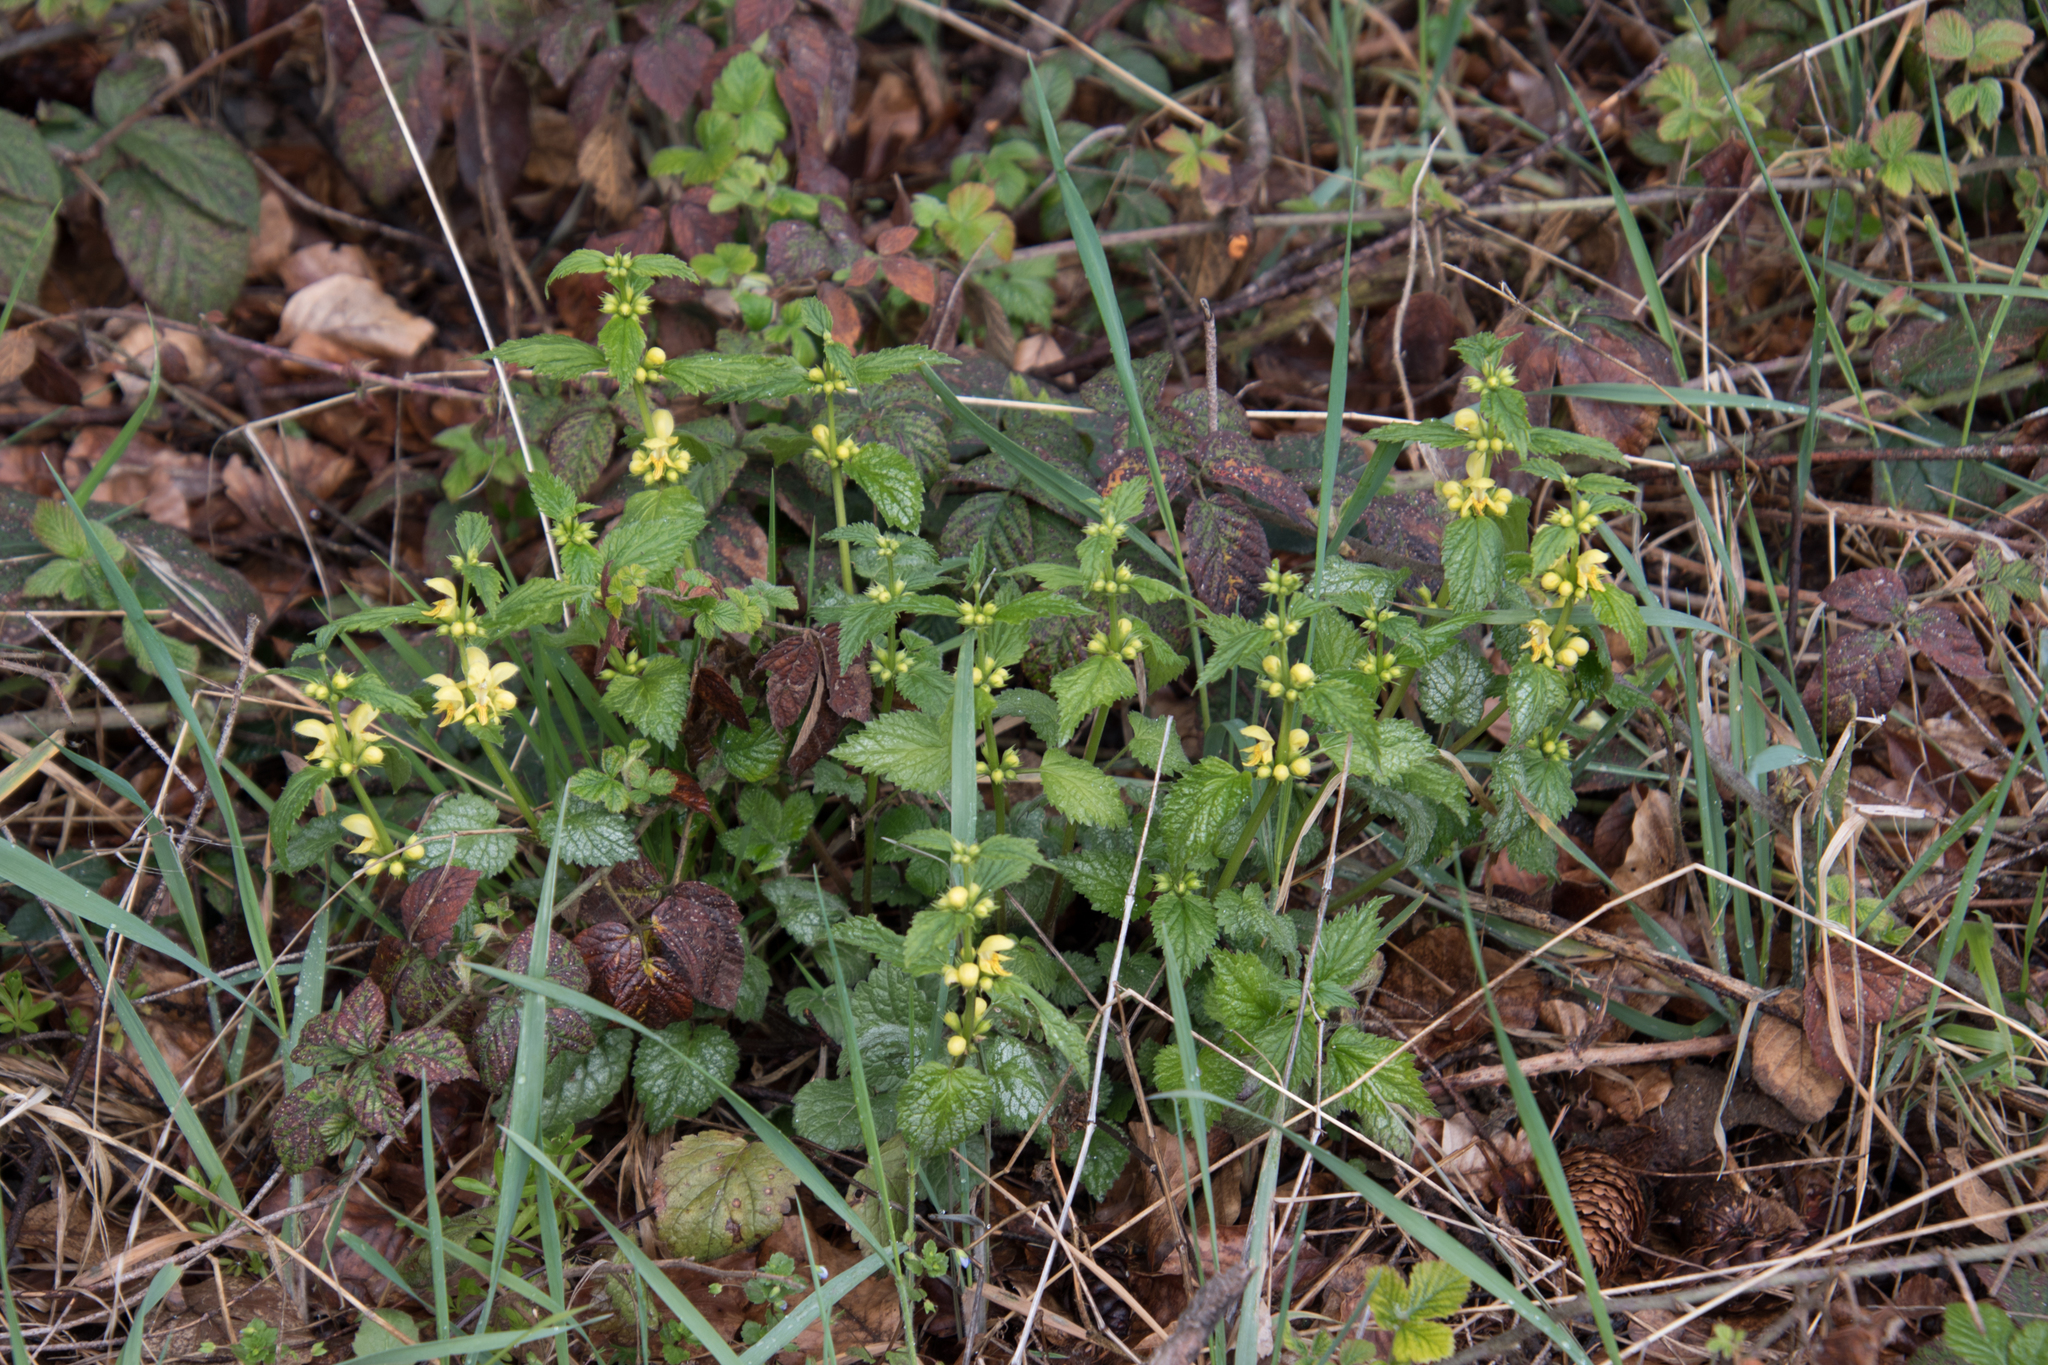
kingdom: Plantae
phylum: Tracheophyta
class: Magnoliopsida
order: Lamiales
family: Lamiaceae
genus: Lamium
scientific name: Lamium galeobdolon
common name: Yellow archangel
